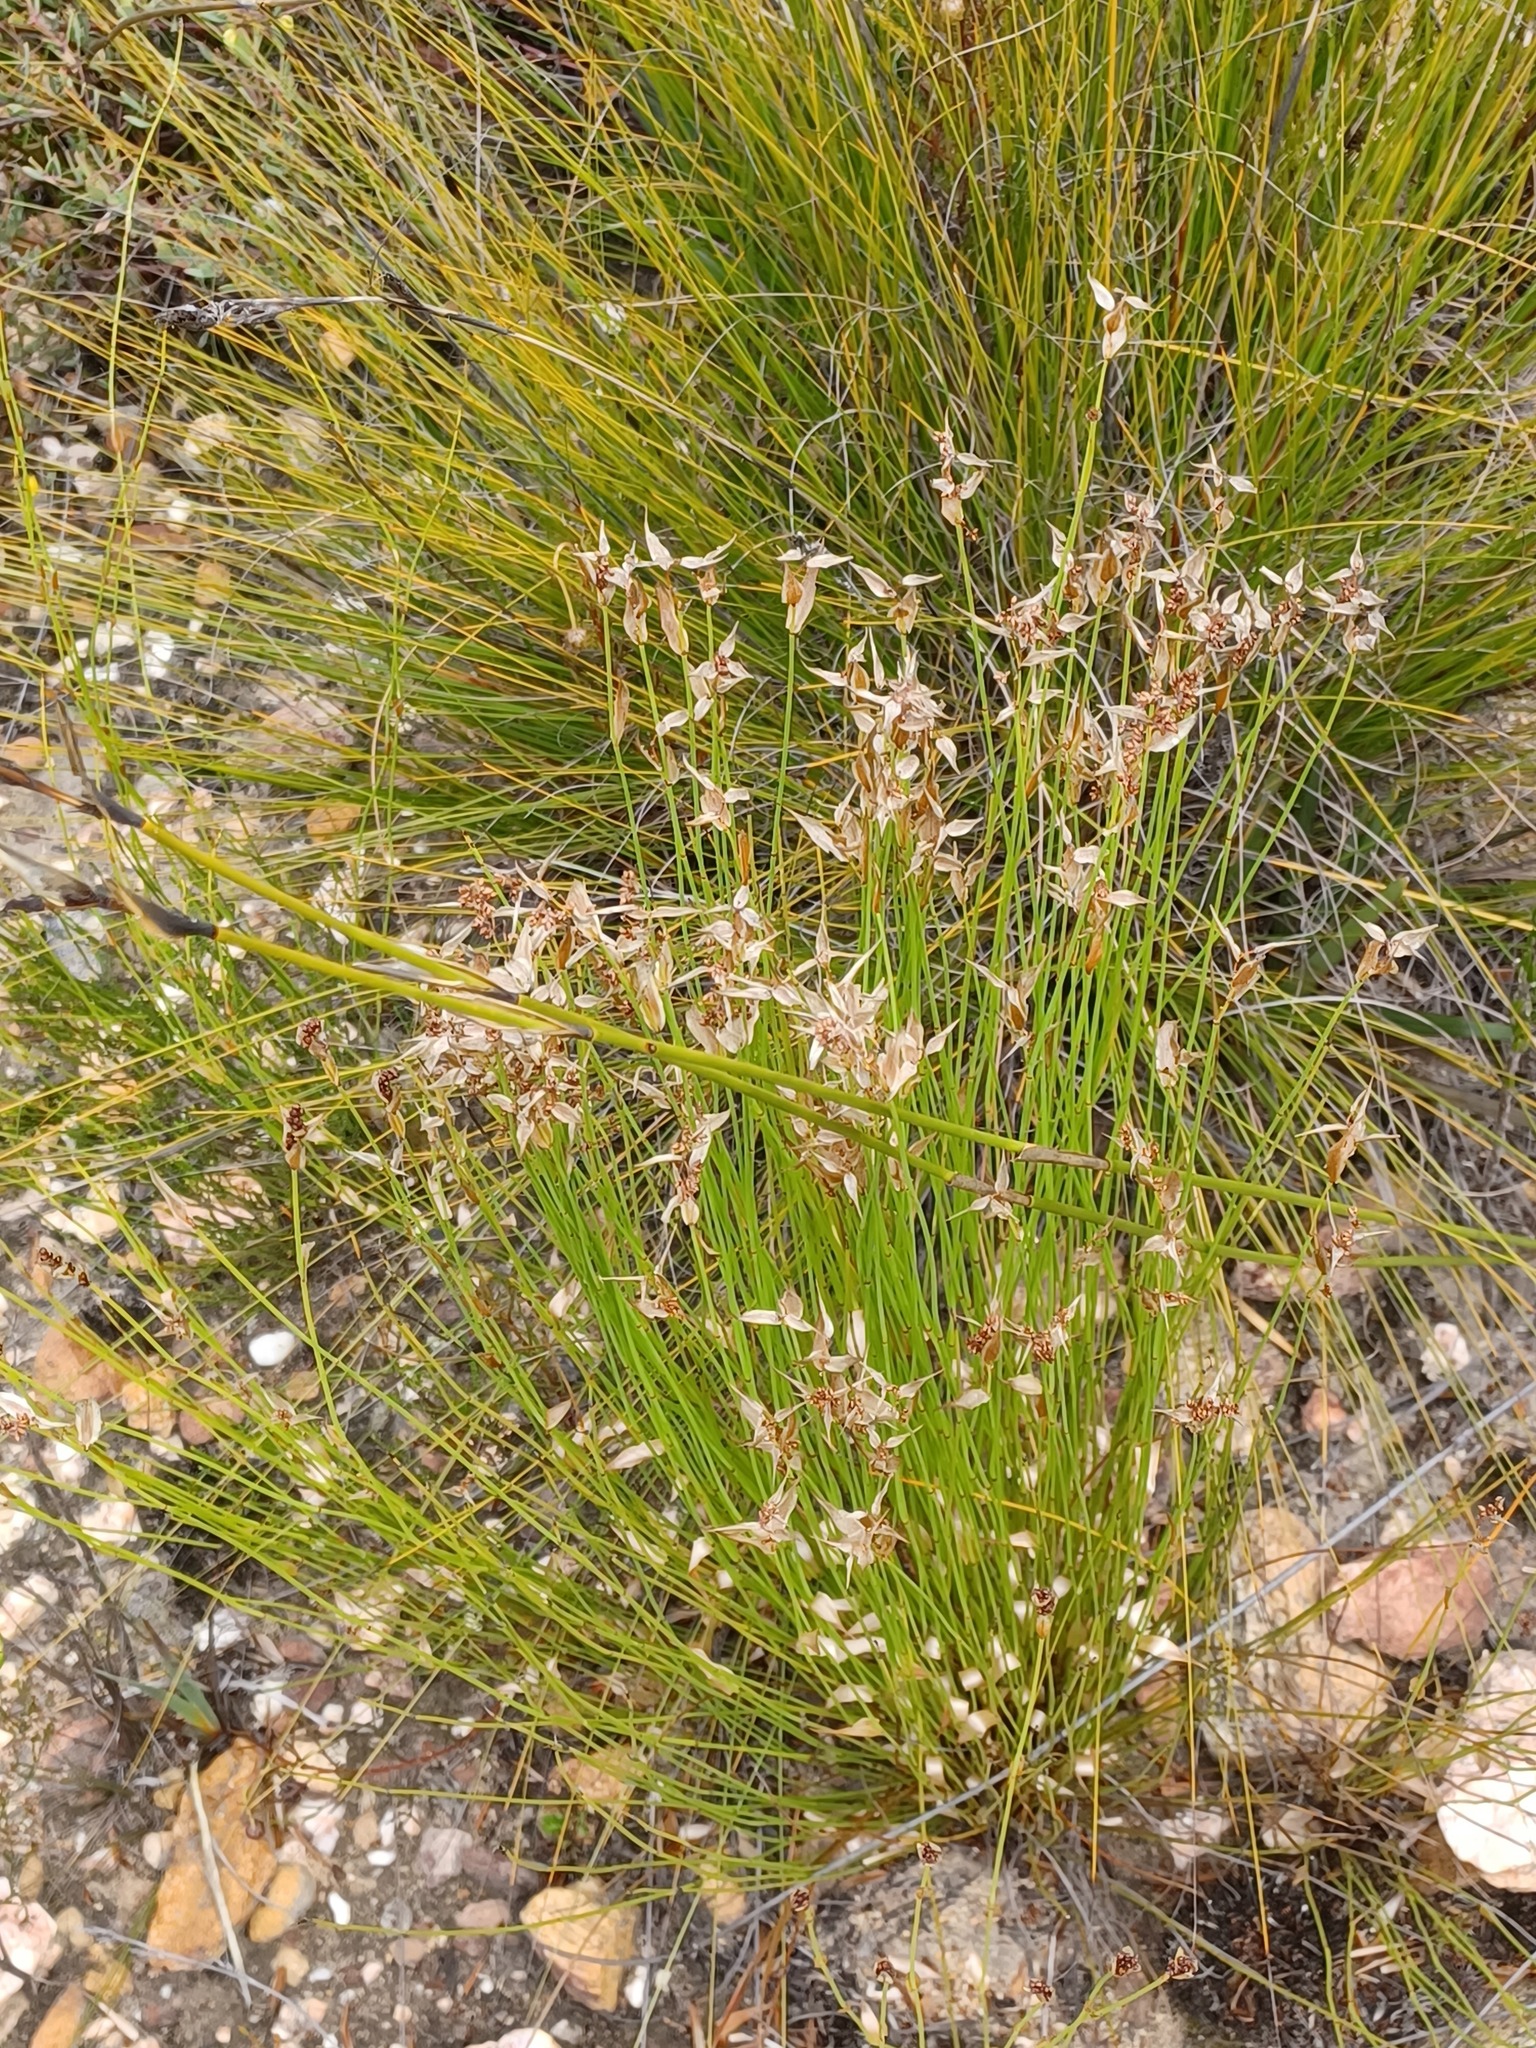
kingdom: Plantae
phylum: Tracheophyta
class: Liliopsida
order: Poales
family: Restionaceae
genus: Elegia
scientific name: Elegia filacea
